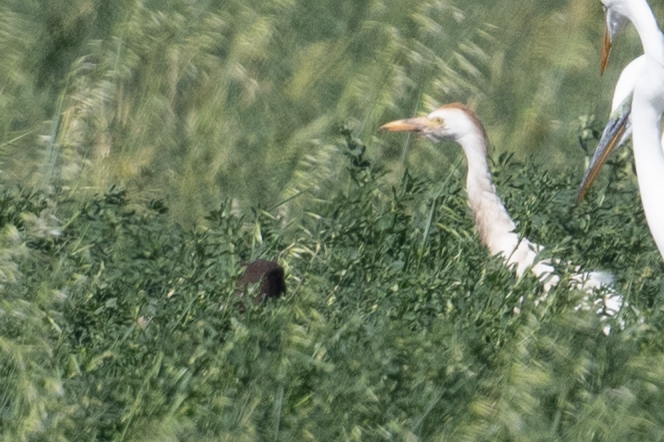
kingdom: Animalia
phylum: Chordata
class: Aves
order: Pelecaniformes
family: Ardeidae
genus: Bubulcus
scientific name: Bubulcus ibis
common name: Cattle egret
